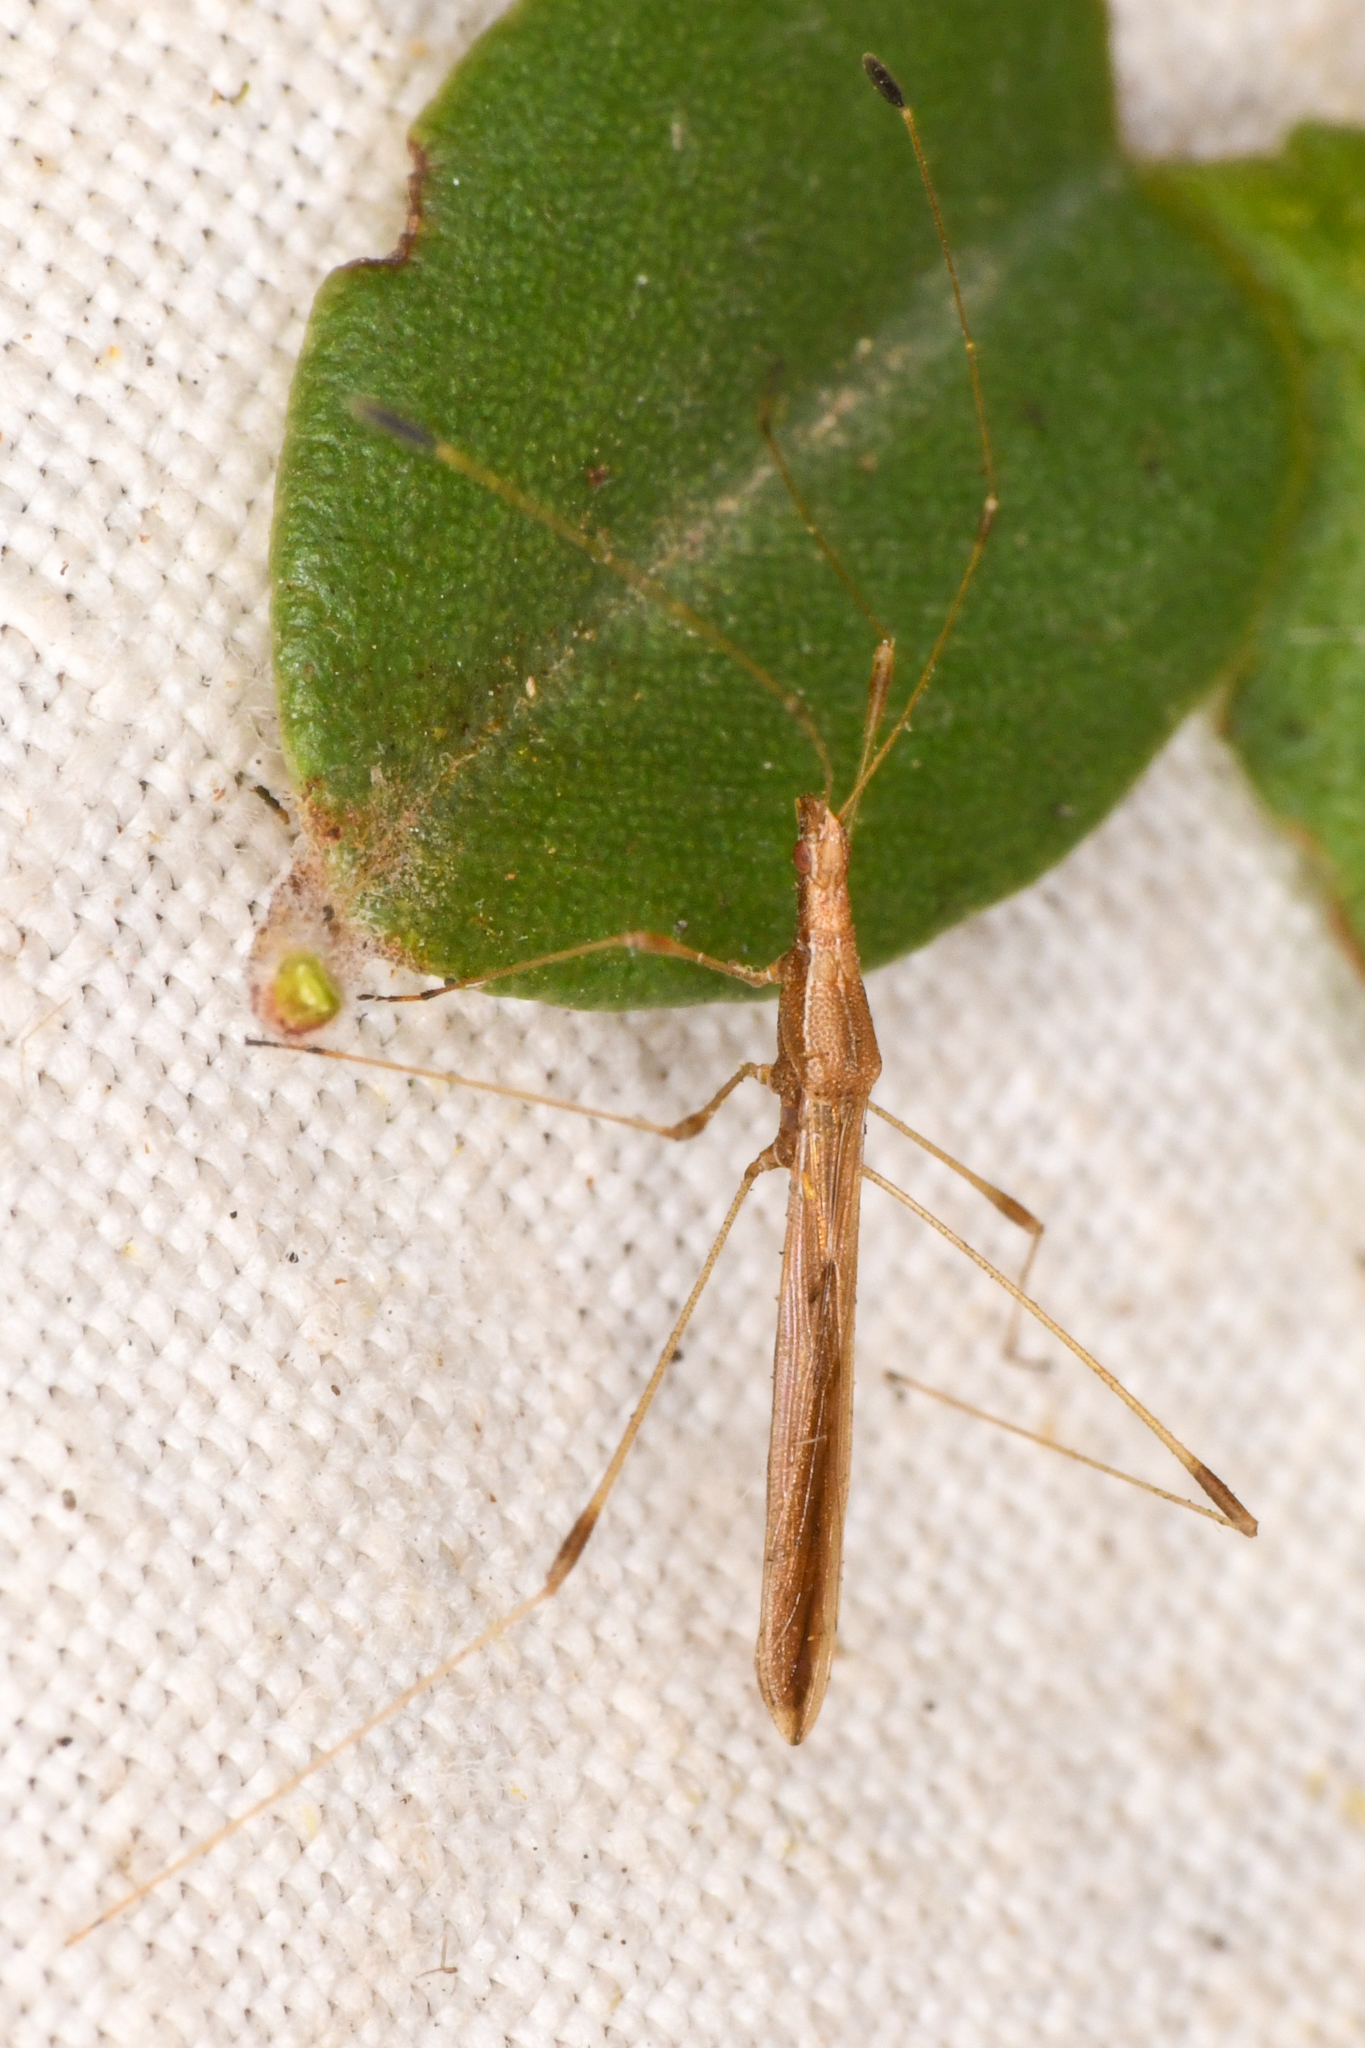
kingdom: Animalia
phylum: Arthropoda
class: Insecta
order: Hemiptera
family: Berytidae
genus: Neoneides
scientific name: Neoneides muticus
